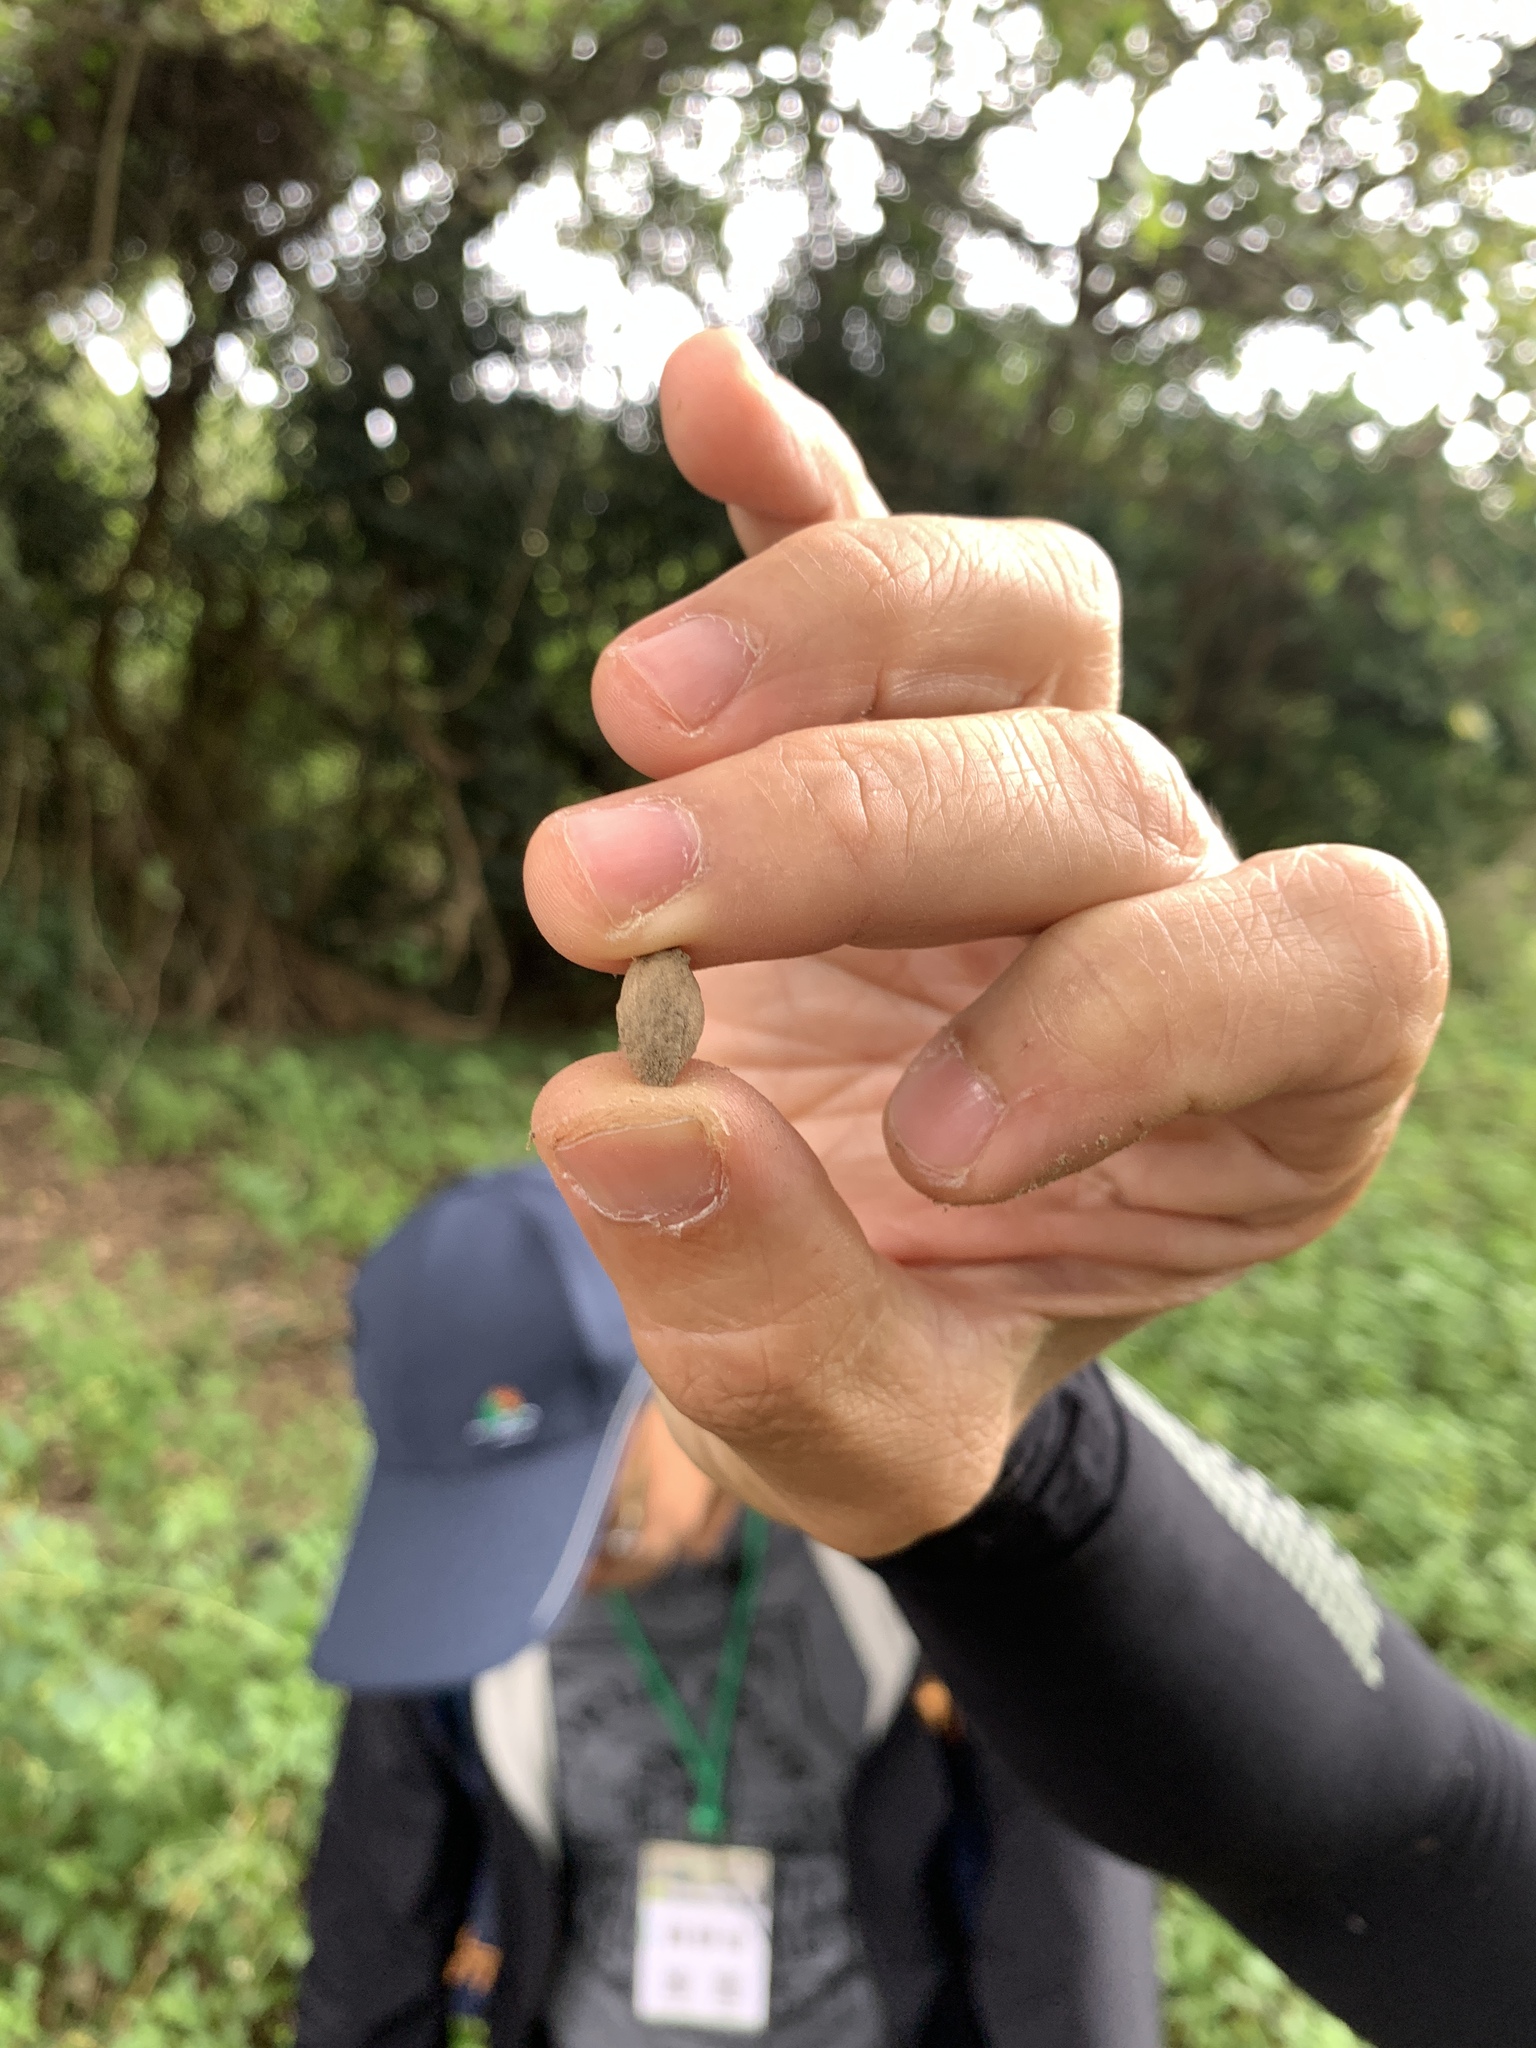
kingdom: Plantae
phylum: Tracheophyta
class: Magnoliopsida
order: Malpighiales
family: Putranjivaceae
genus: Putranjiva
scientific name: Putranjiva formosana
